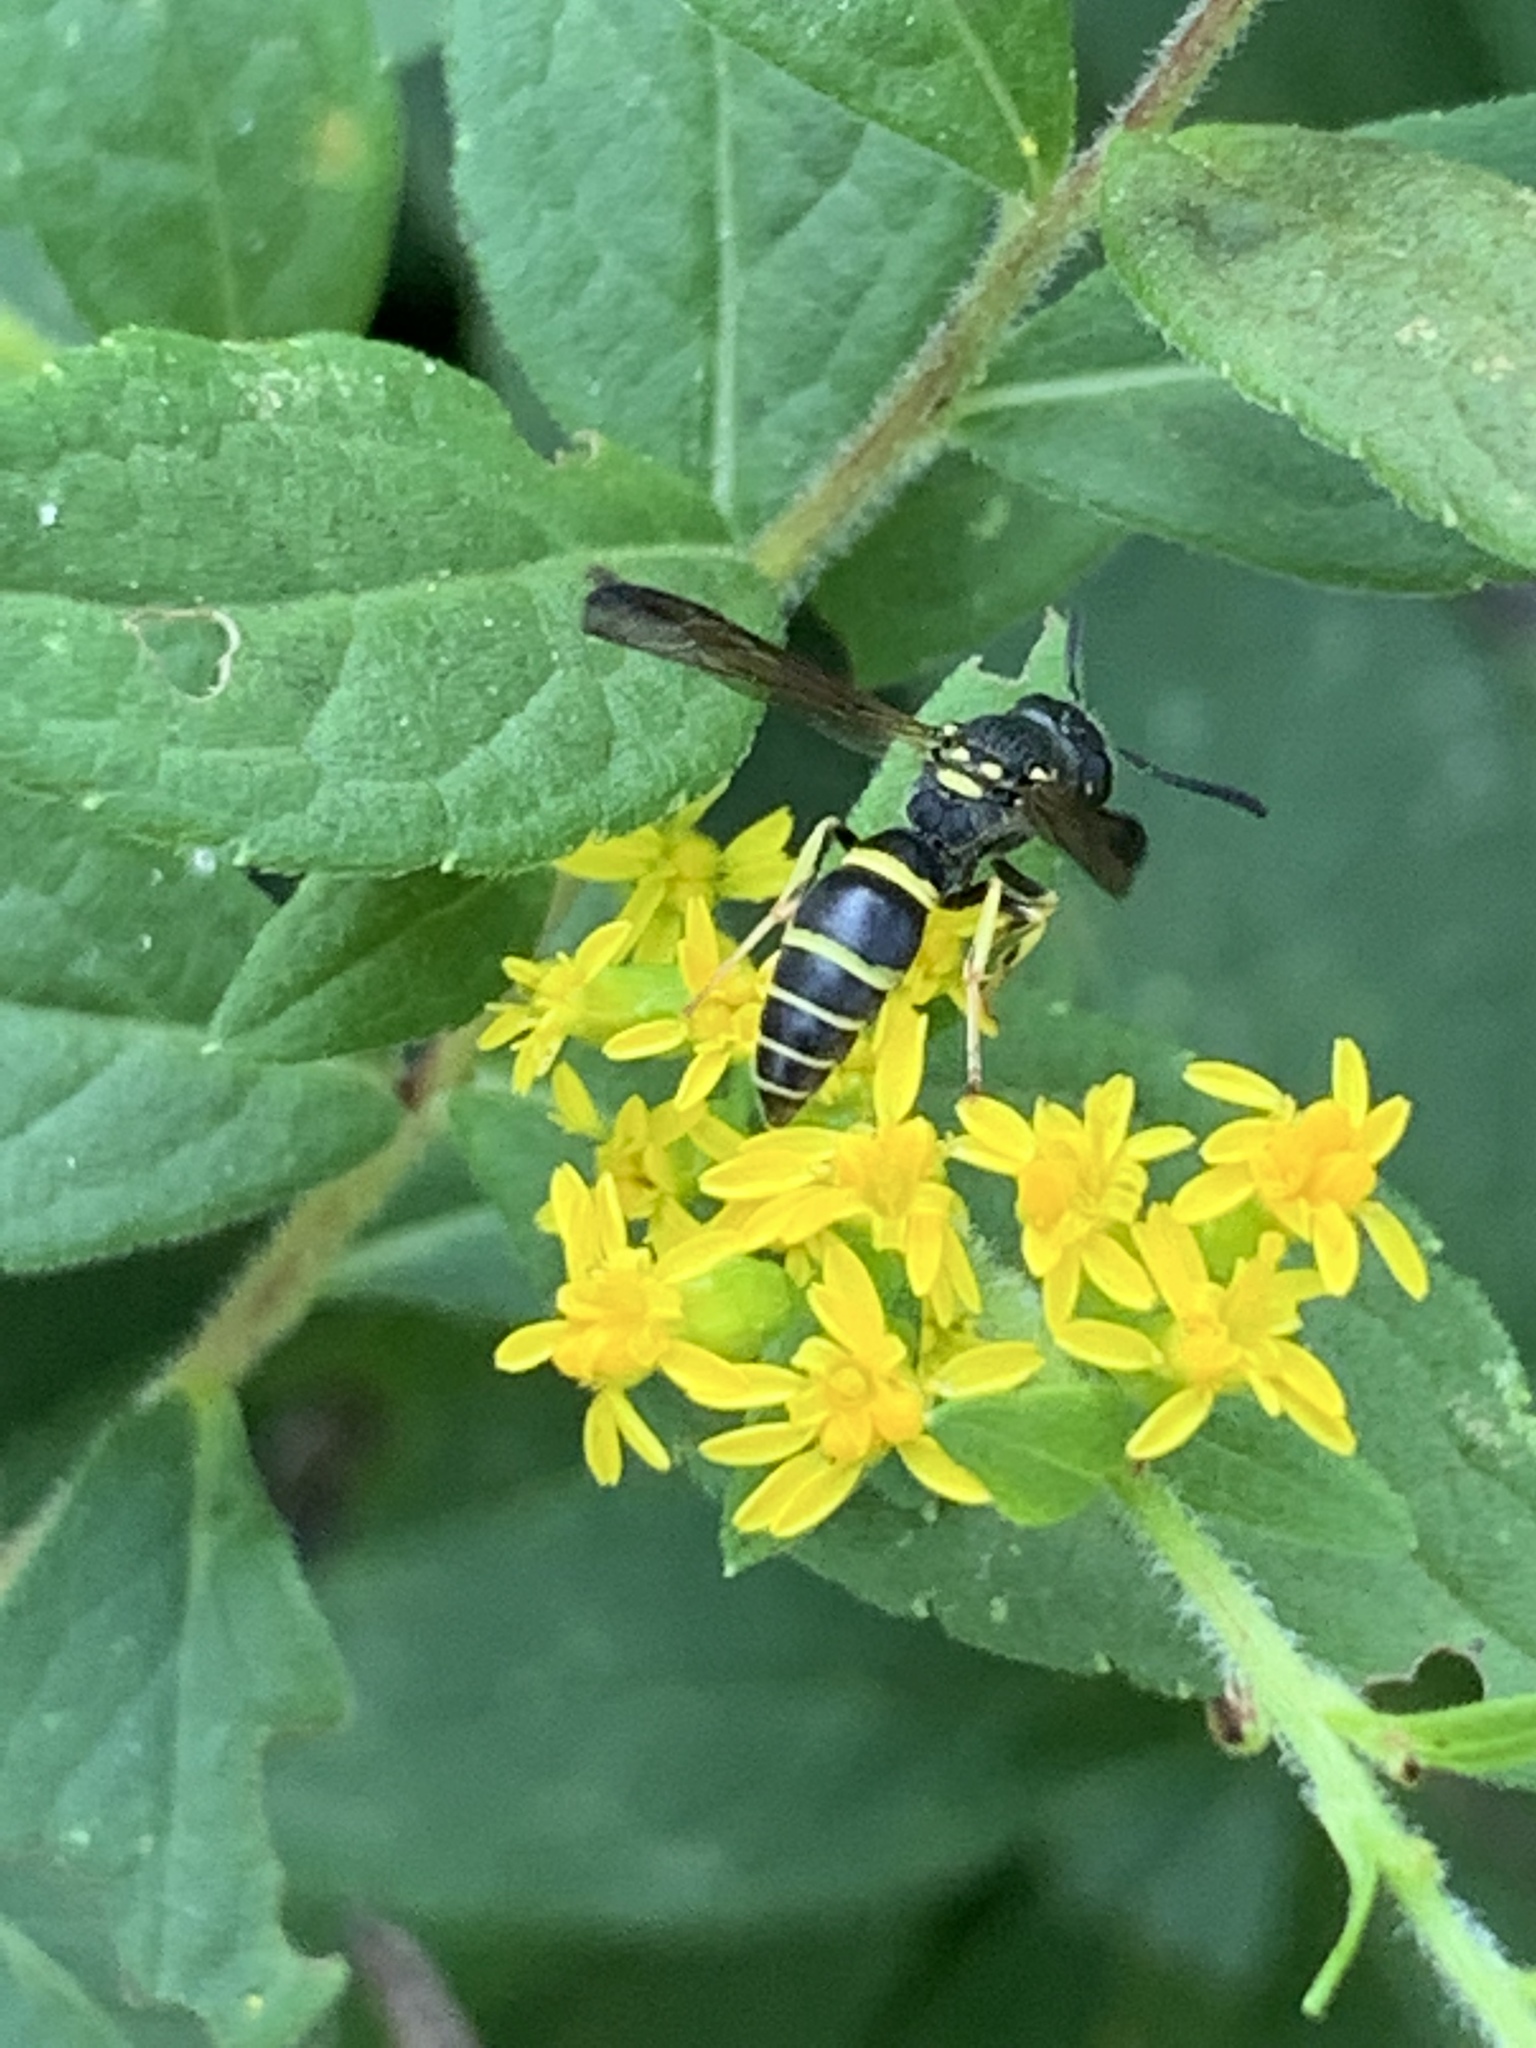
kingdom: Animalia
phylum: Arthropoda
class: Insecta
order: Hymenoptera
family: Vespidae
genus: Ancistrocerus
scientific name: Ancistrocerus adiabatus
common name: Bramble mason wasp
